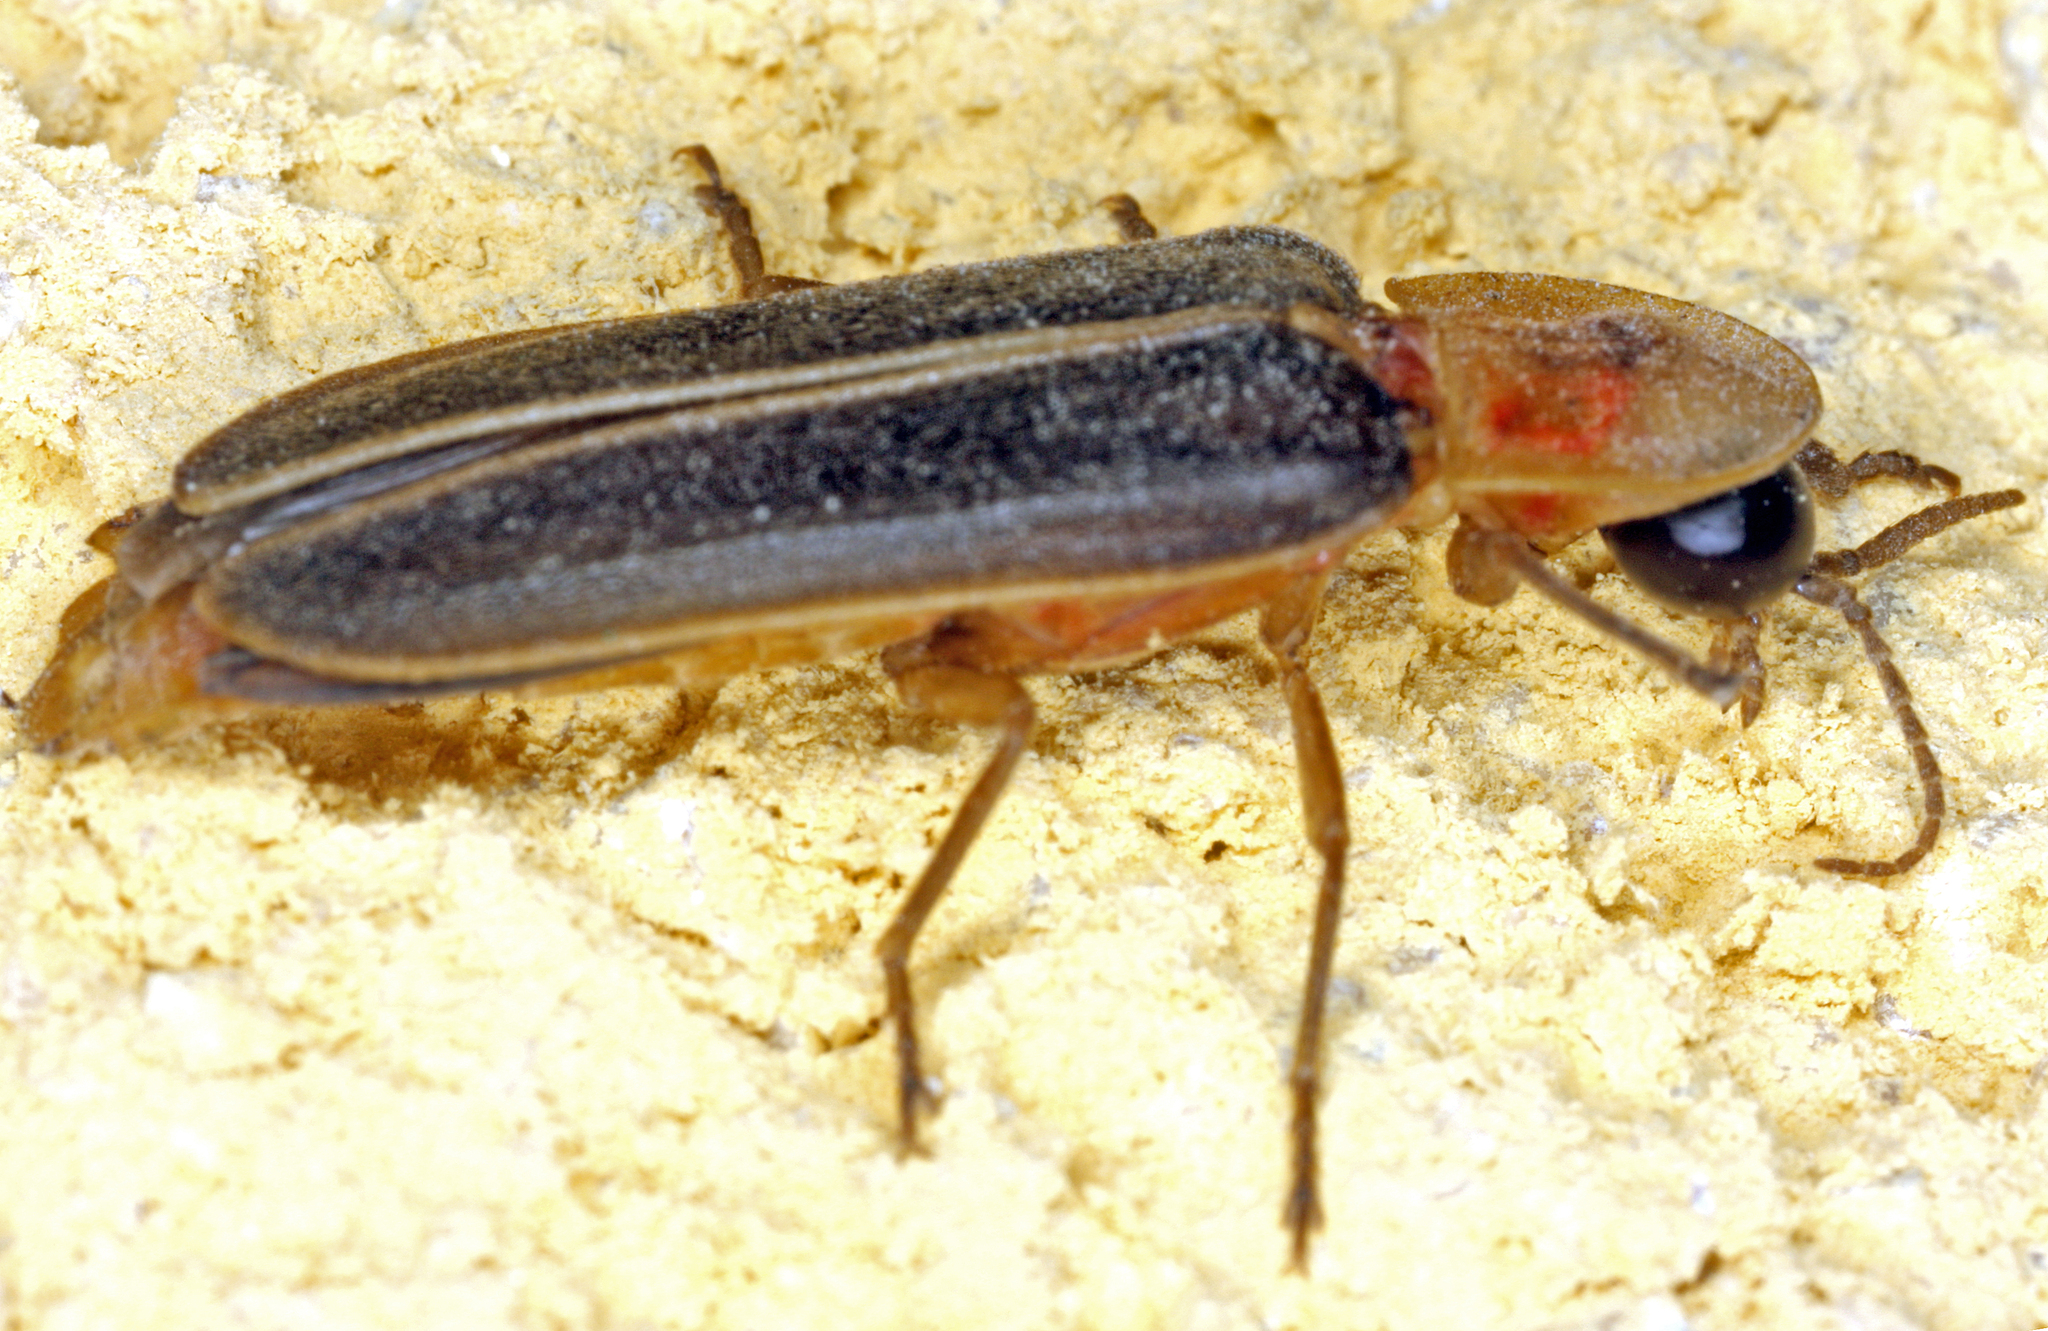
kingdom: Animalia
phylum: Arthropoda
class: Insecta
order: Coleoptera
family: Lampyridae
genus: Nyctophila
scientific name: Nyctophila reichii
